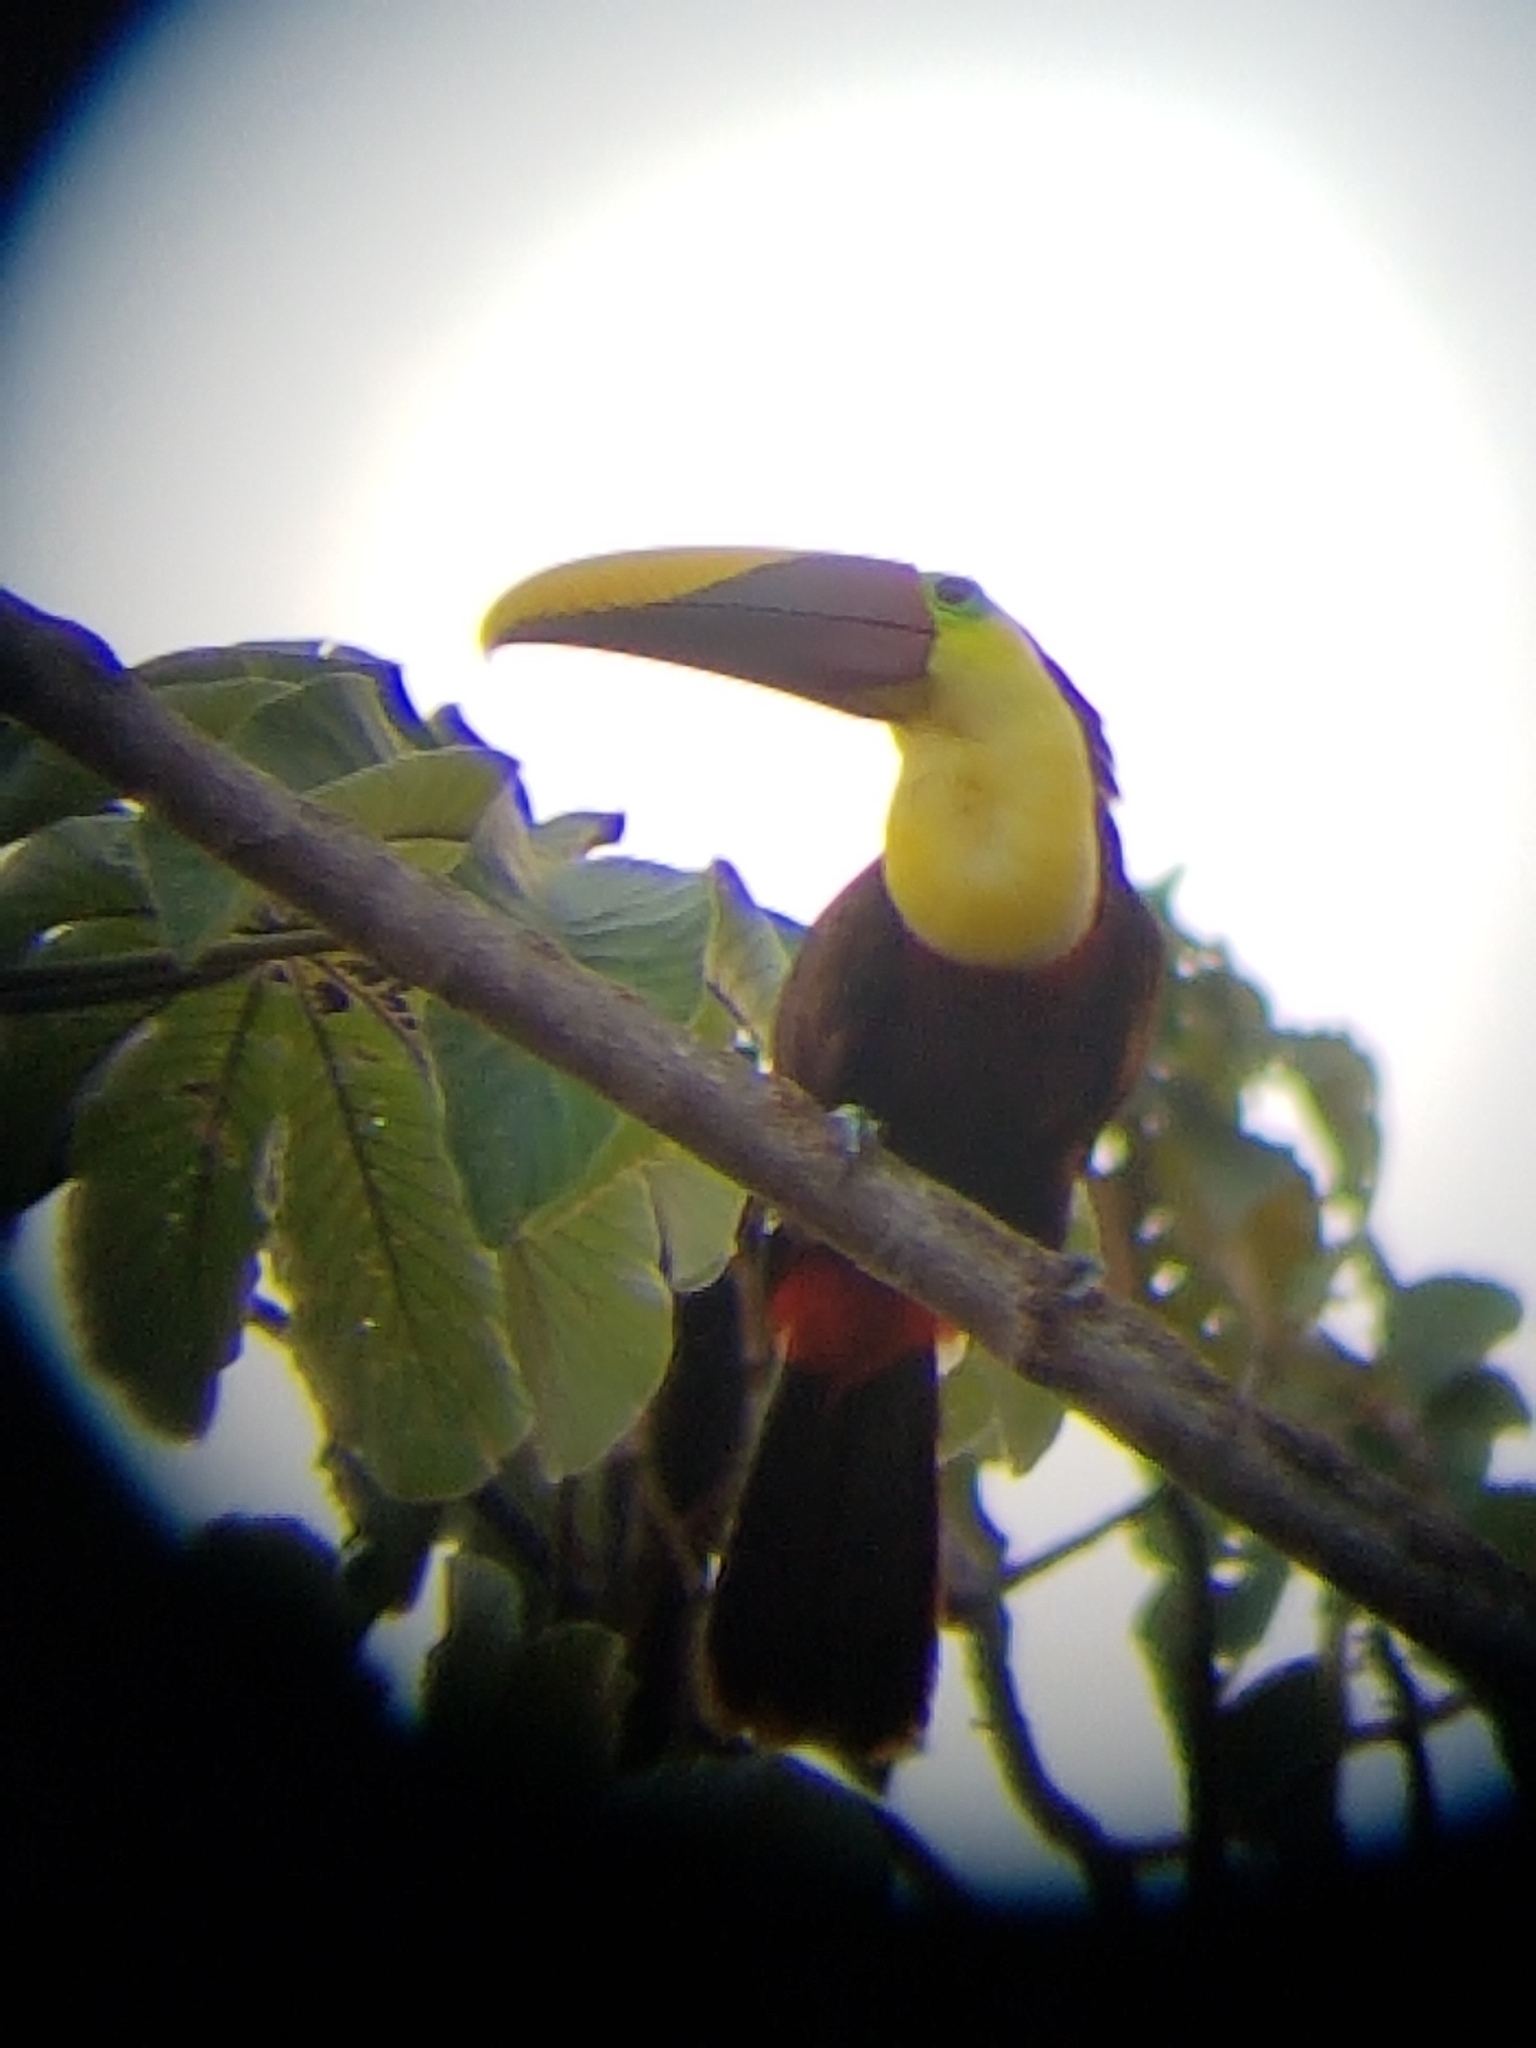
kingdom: Animalia
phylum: Chordata
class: Aves
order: Piciformes
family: Ramphastidae
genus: Ramphastos
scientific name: Ramphastos ambiguus
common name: Yellow-throated toucan
